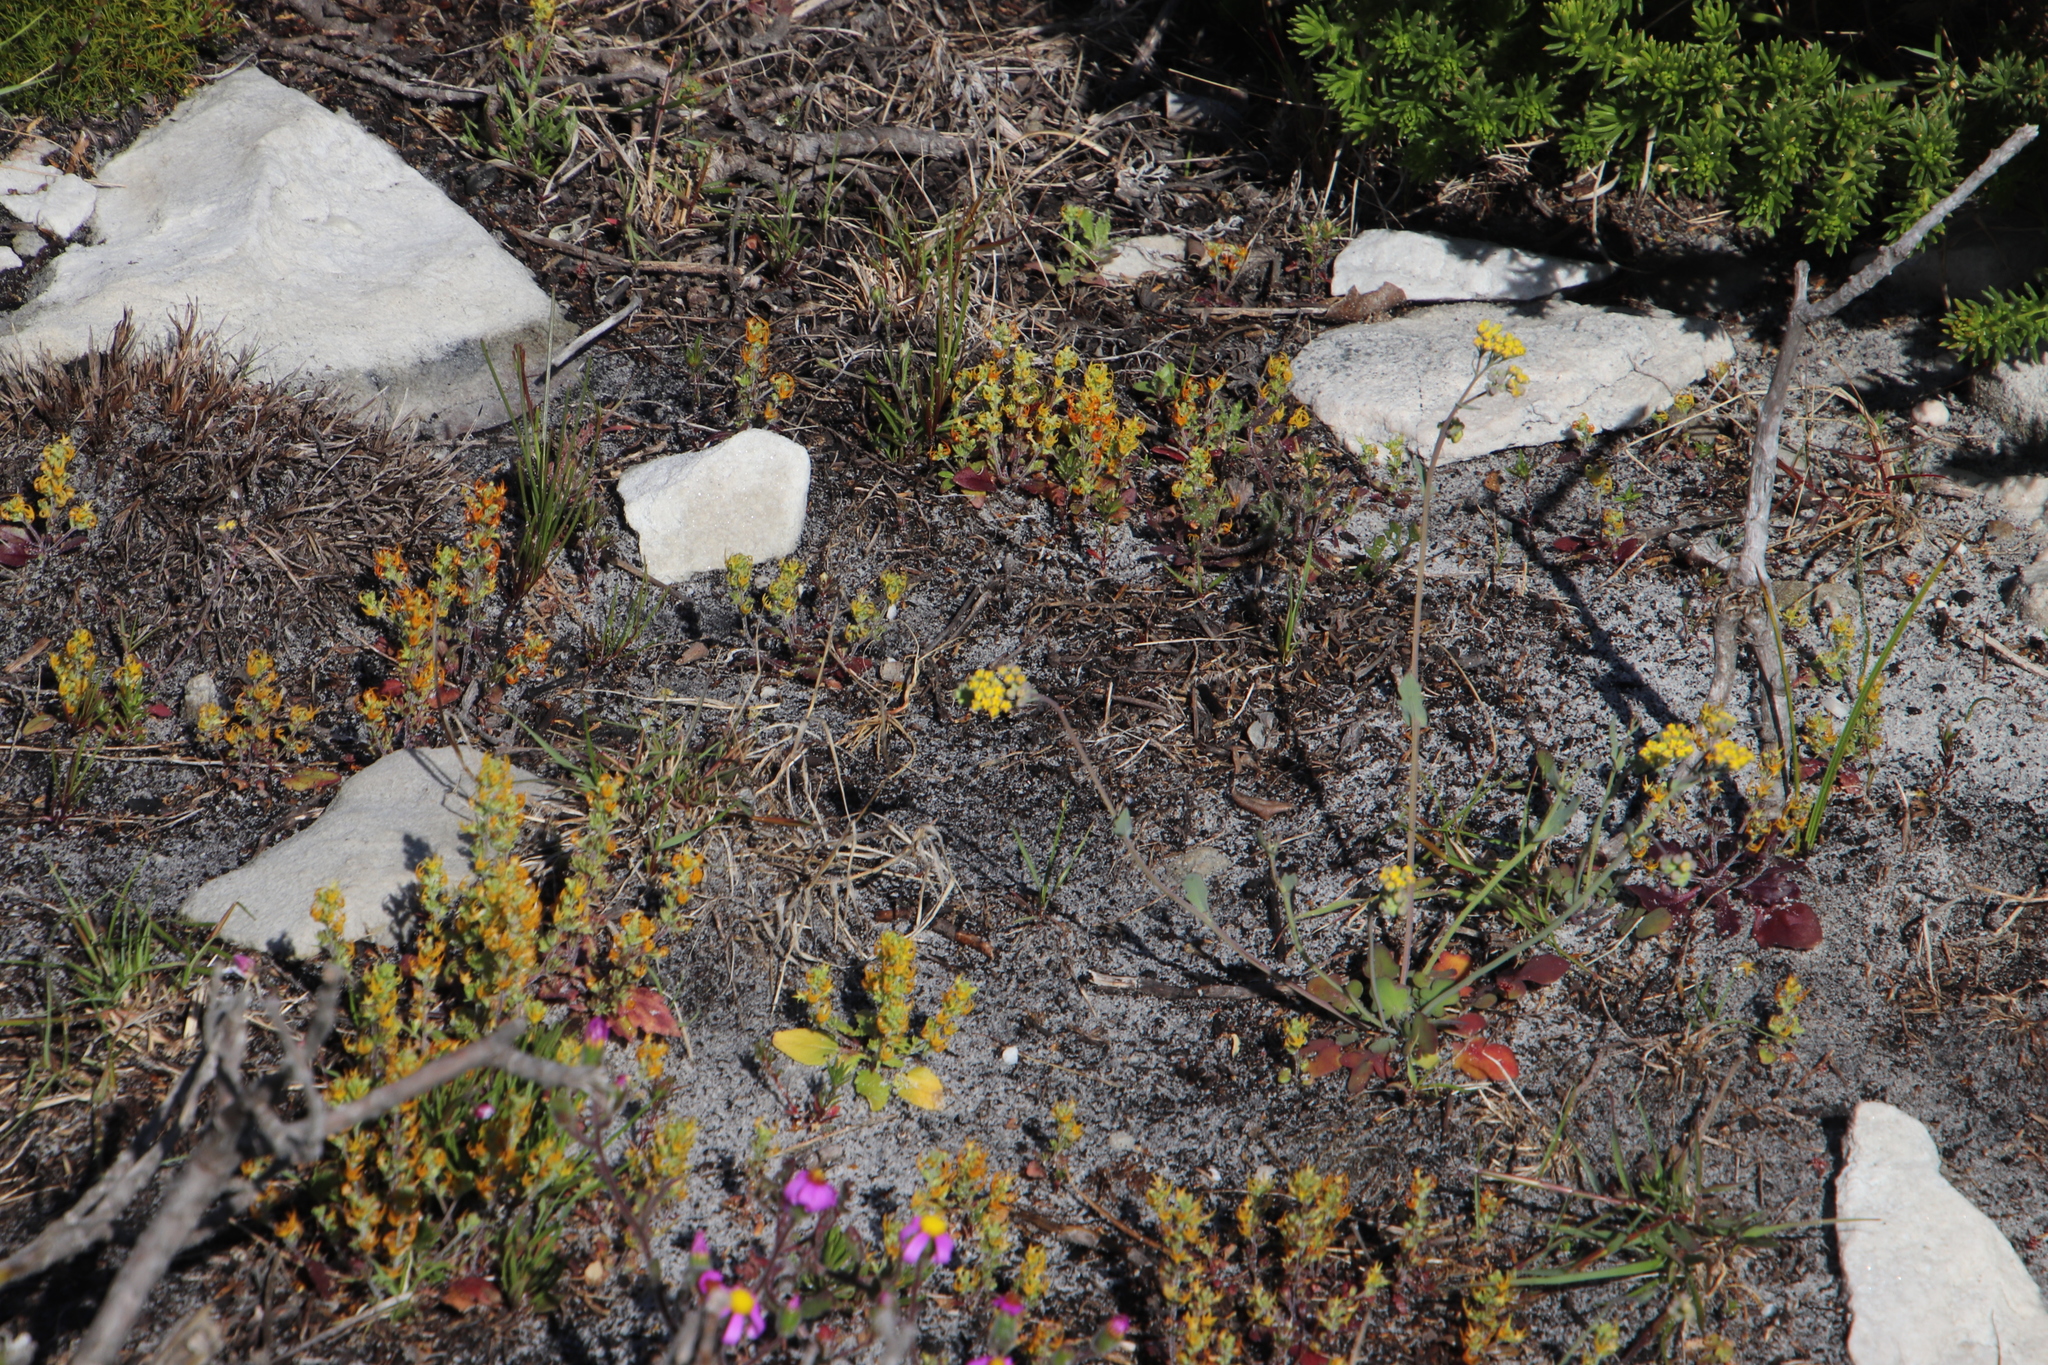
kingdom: Plantae
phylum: Tracheophyta
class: Magnoliopsida
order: Asterales
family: Asteraceae
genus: Gymnodiscus
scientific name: Gymnodiscus capillaris
